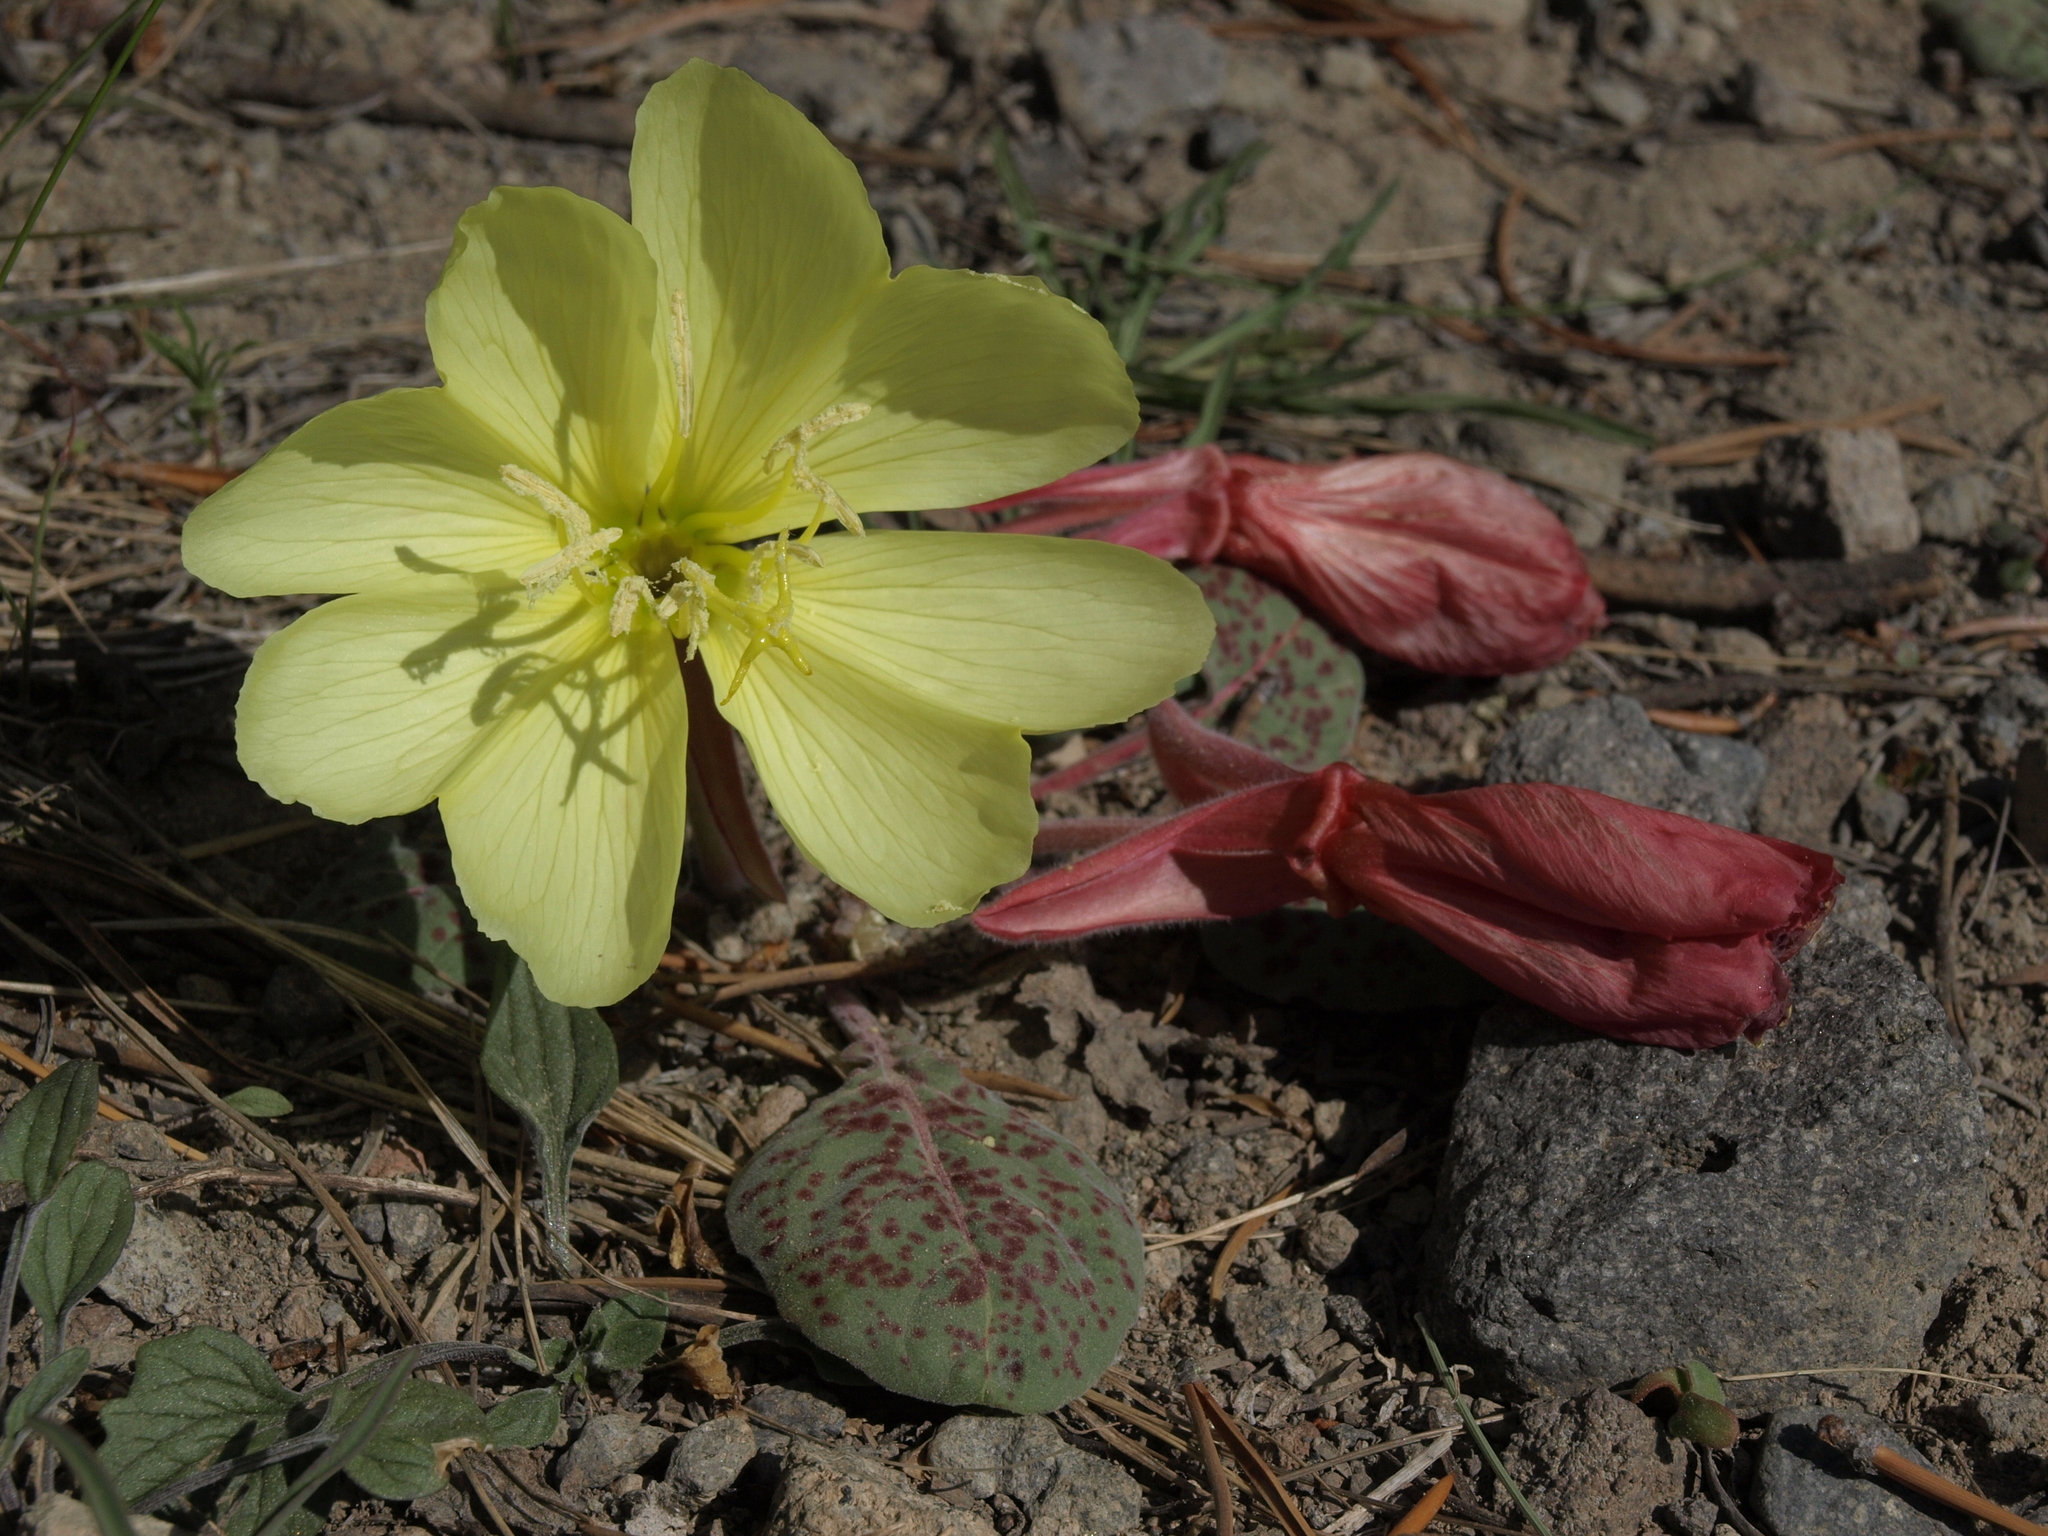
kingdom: Plantae
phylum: Tracheophyta
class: Magnoliopsida
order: Myrtales
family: Onagraceae
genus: Oenothera
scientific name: Oenothera xylocarpa
